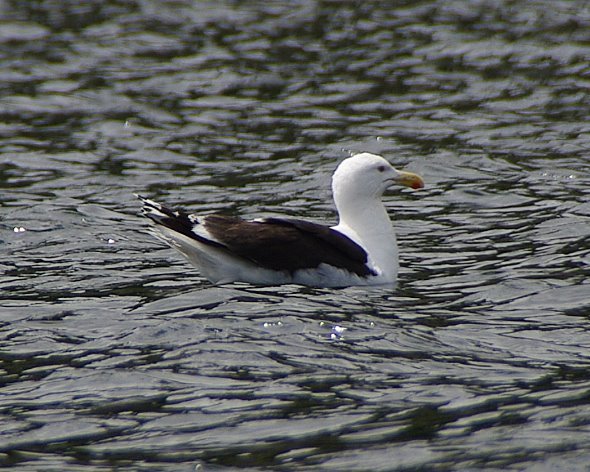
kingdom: Animalia
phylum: Chordata
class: Aves
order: Charadriiformes
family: Laridae
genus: Larus
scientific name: Larus marinus
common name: Great black-backed gull
